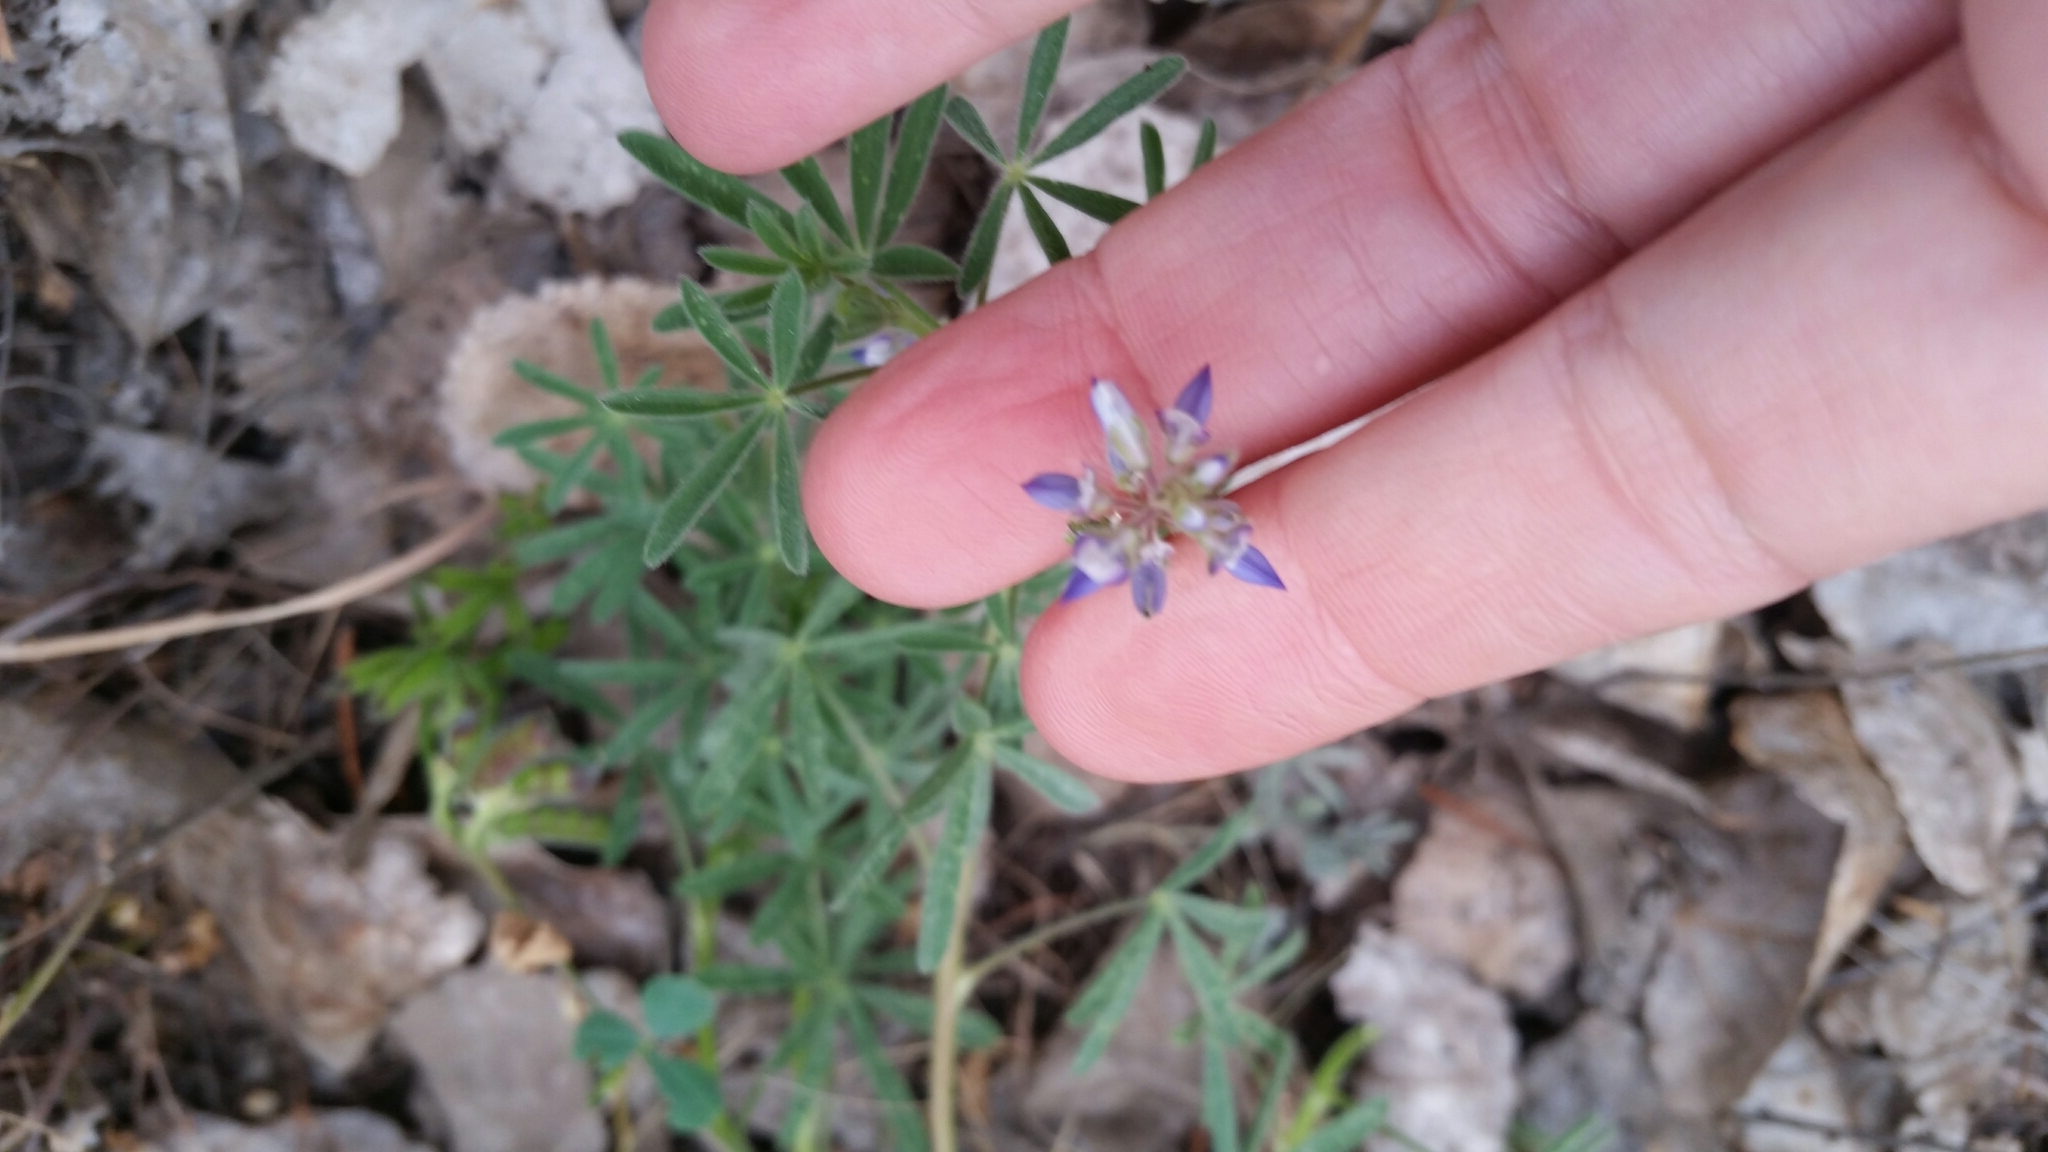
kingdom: Plantae
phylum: Tracheophyta
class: Magnoliopsida
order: Fabales
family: Fabaceae
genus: Lupinus
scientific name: Lupinus bicolor
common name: Miniature lupine
